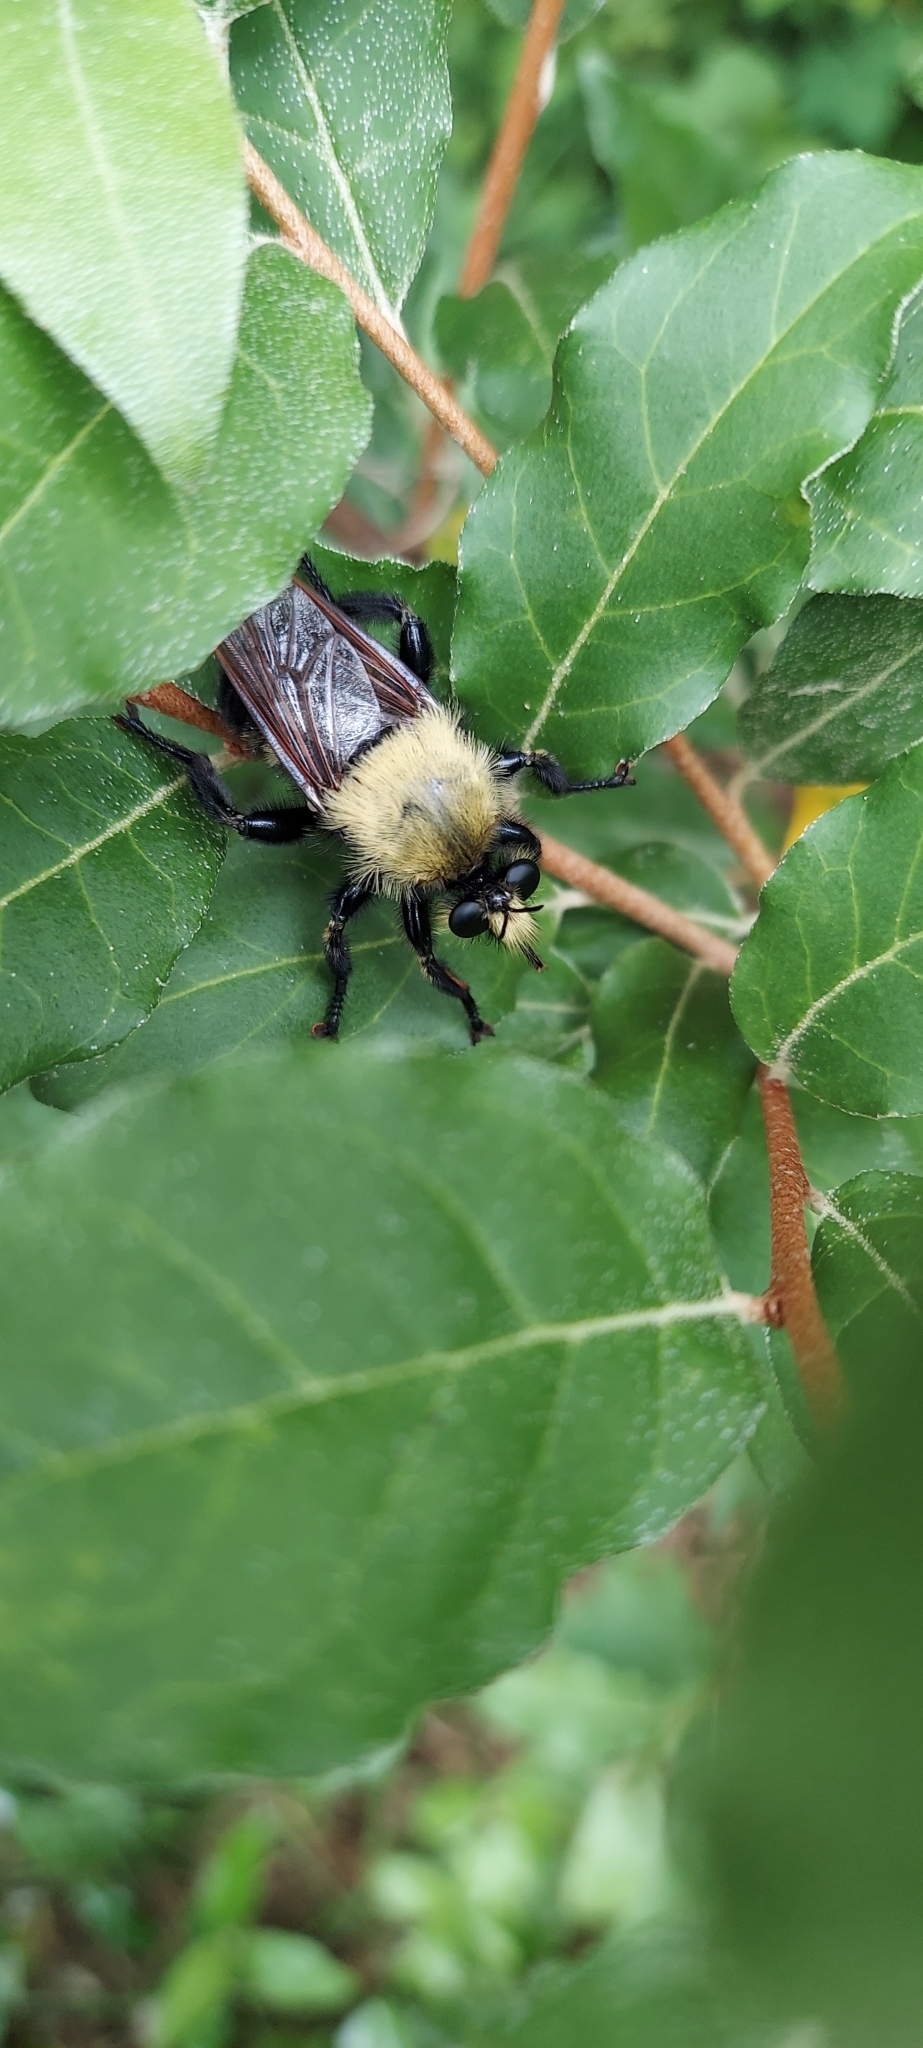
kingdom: Animalia
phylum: Arthropoda
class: Insecta
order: Diptera
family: Asilidae
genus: Laphria
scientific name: Laphria grossa
